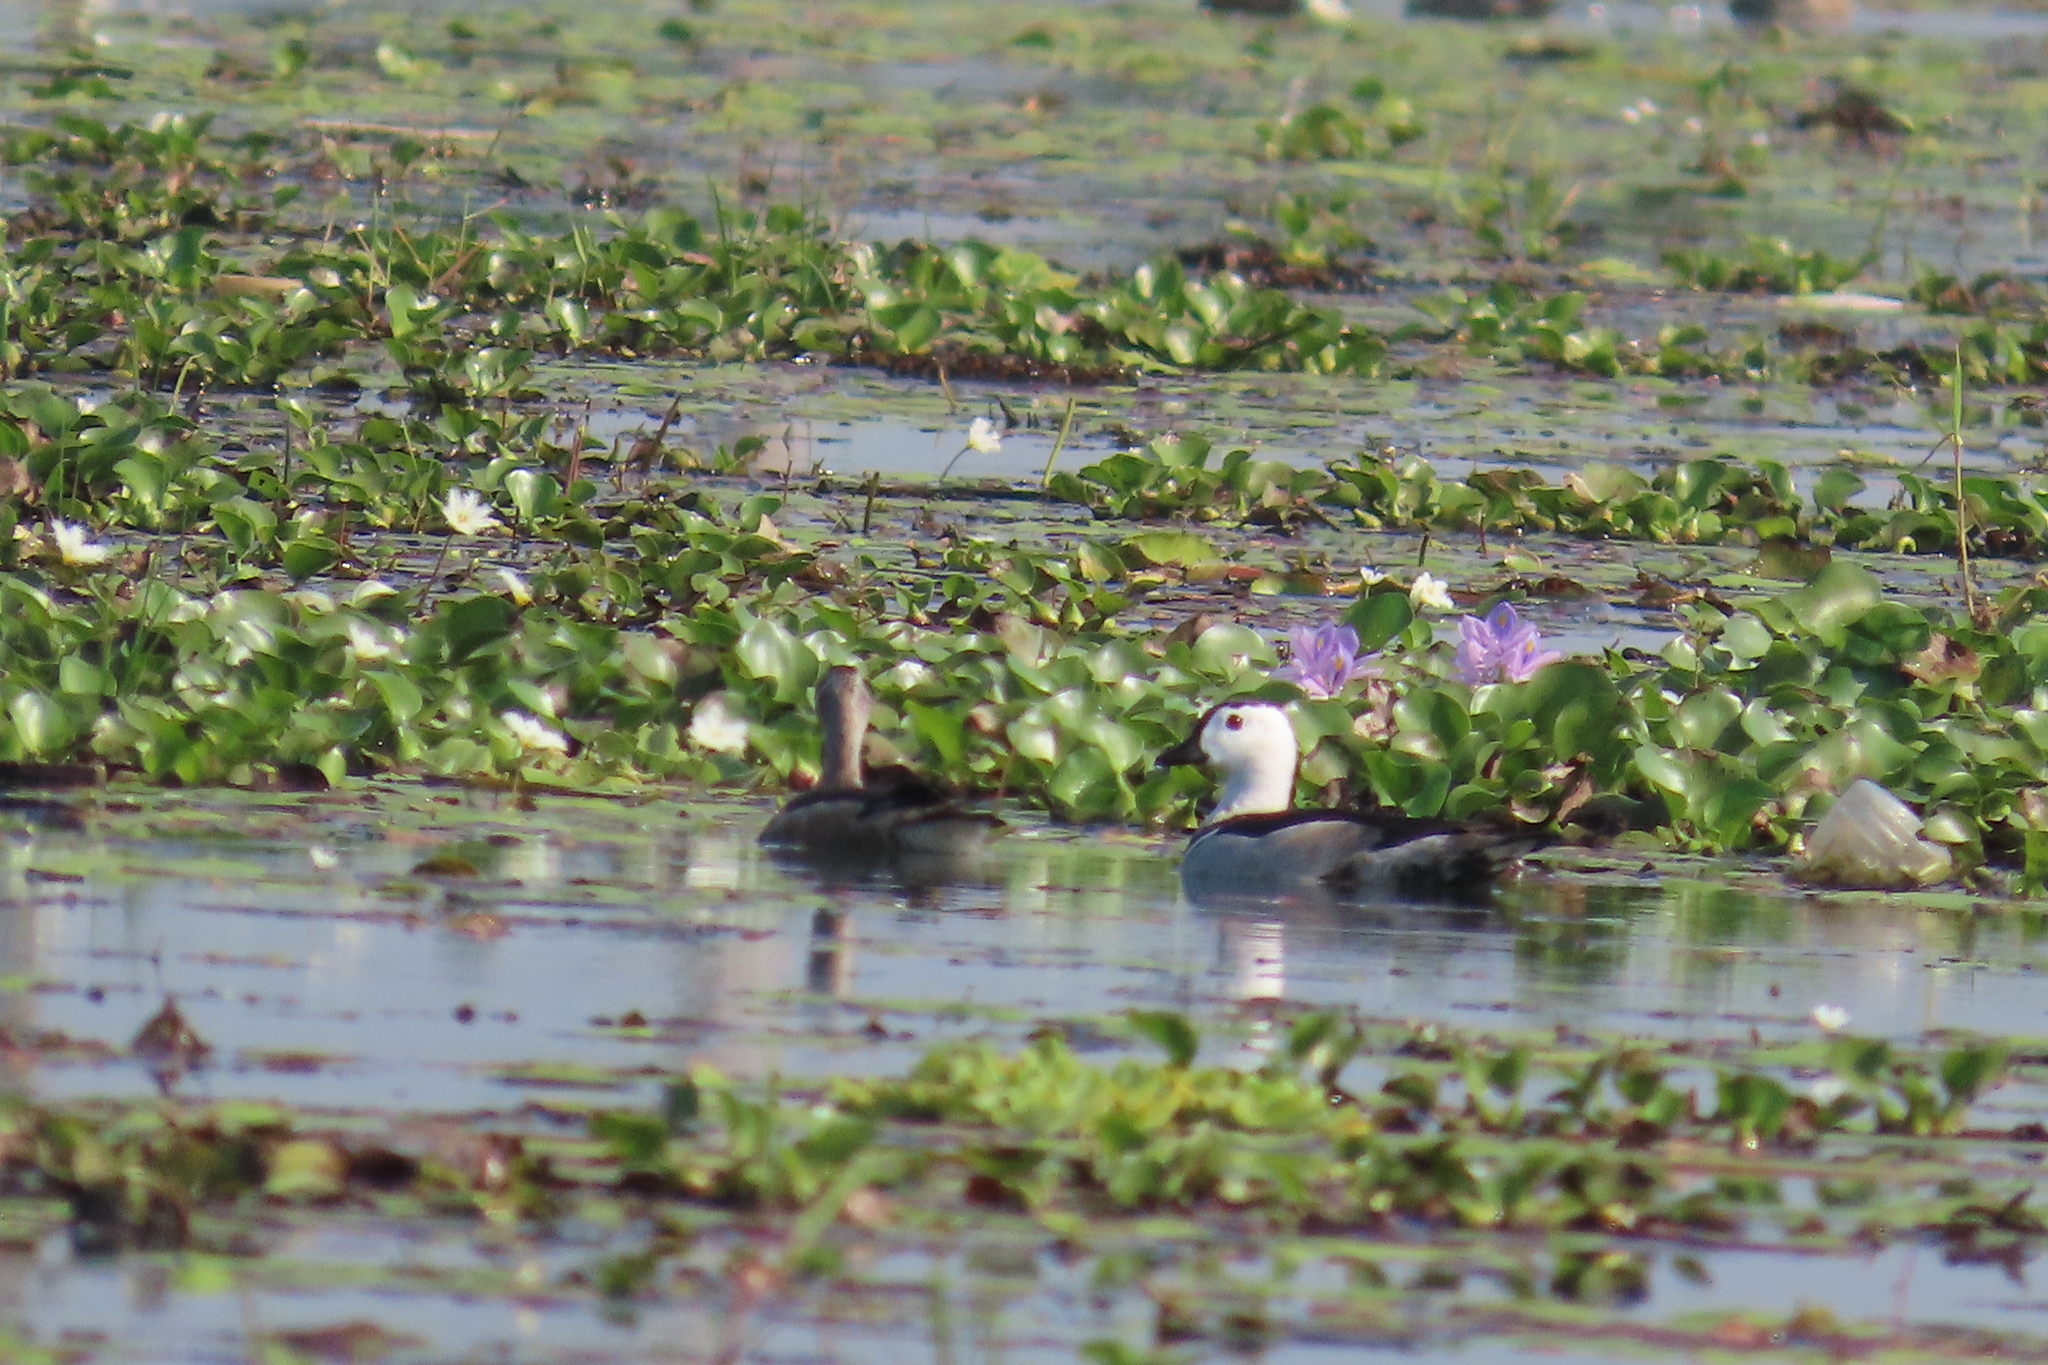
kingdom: Animalia
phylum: Chordata
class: Aves
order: Anseriformes
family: Anatidae
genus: Nettapus
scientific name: Nettapus coromandelianus
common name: Cotton pygmy-goose
